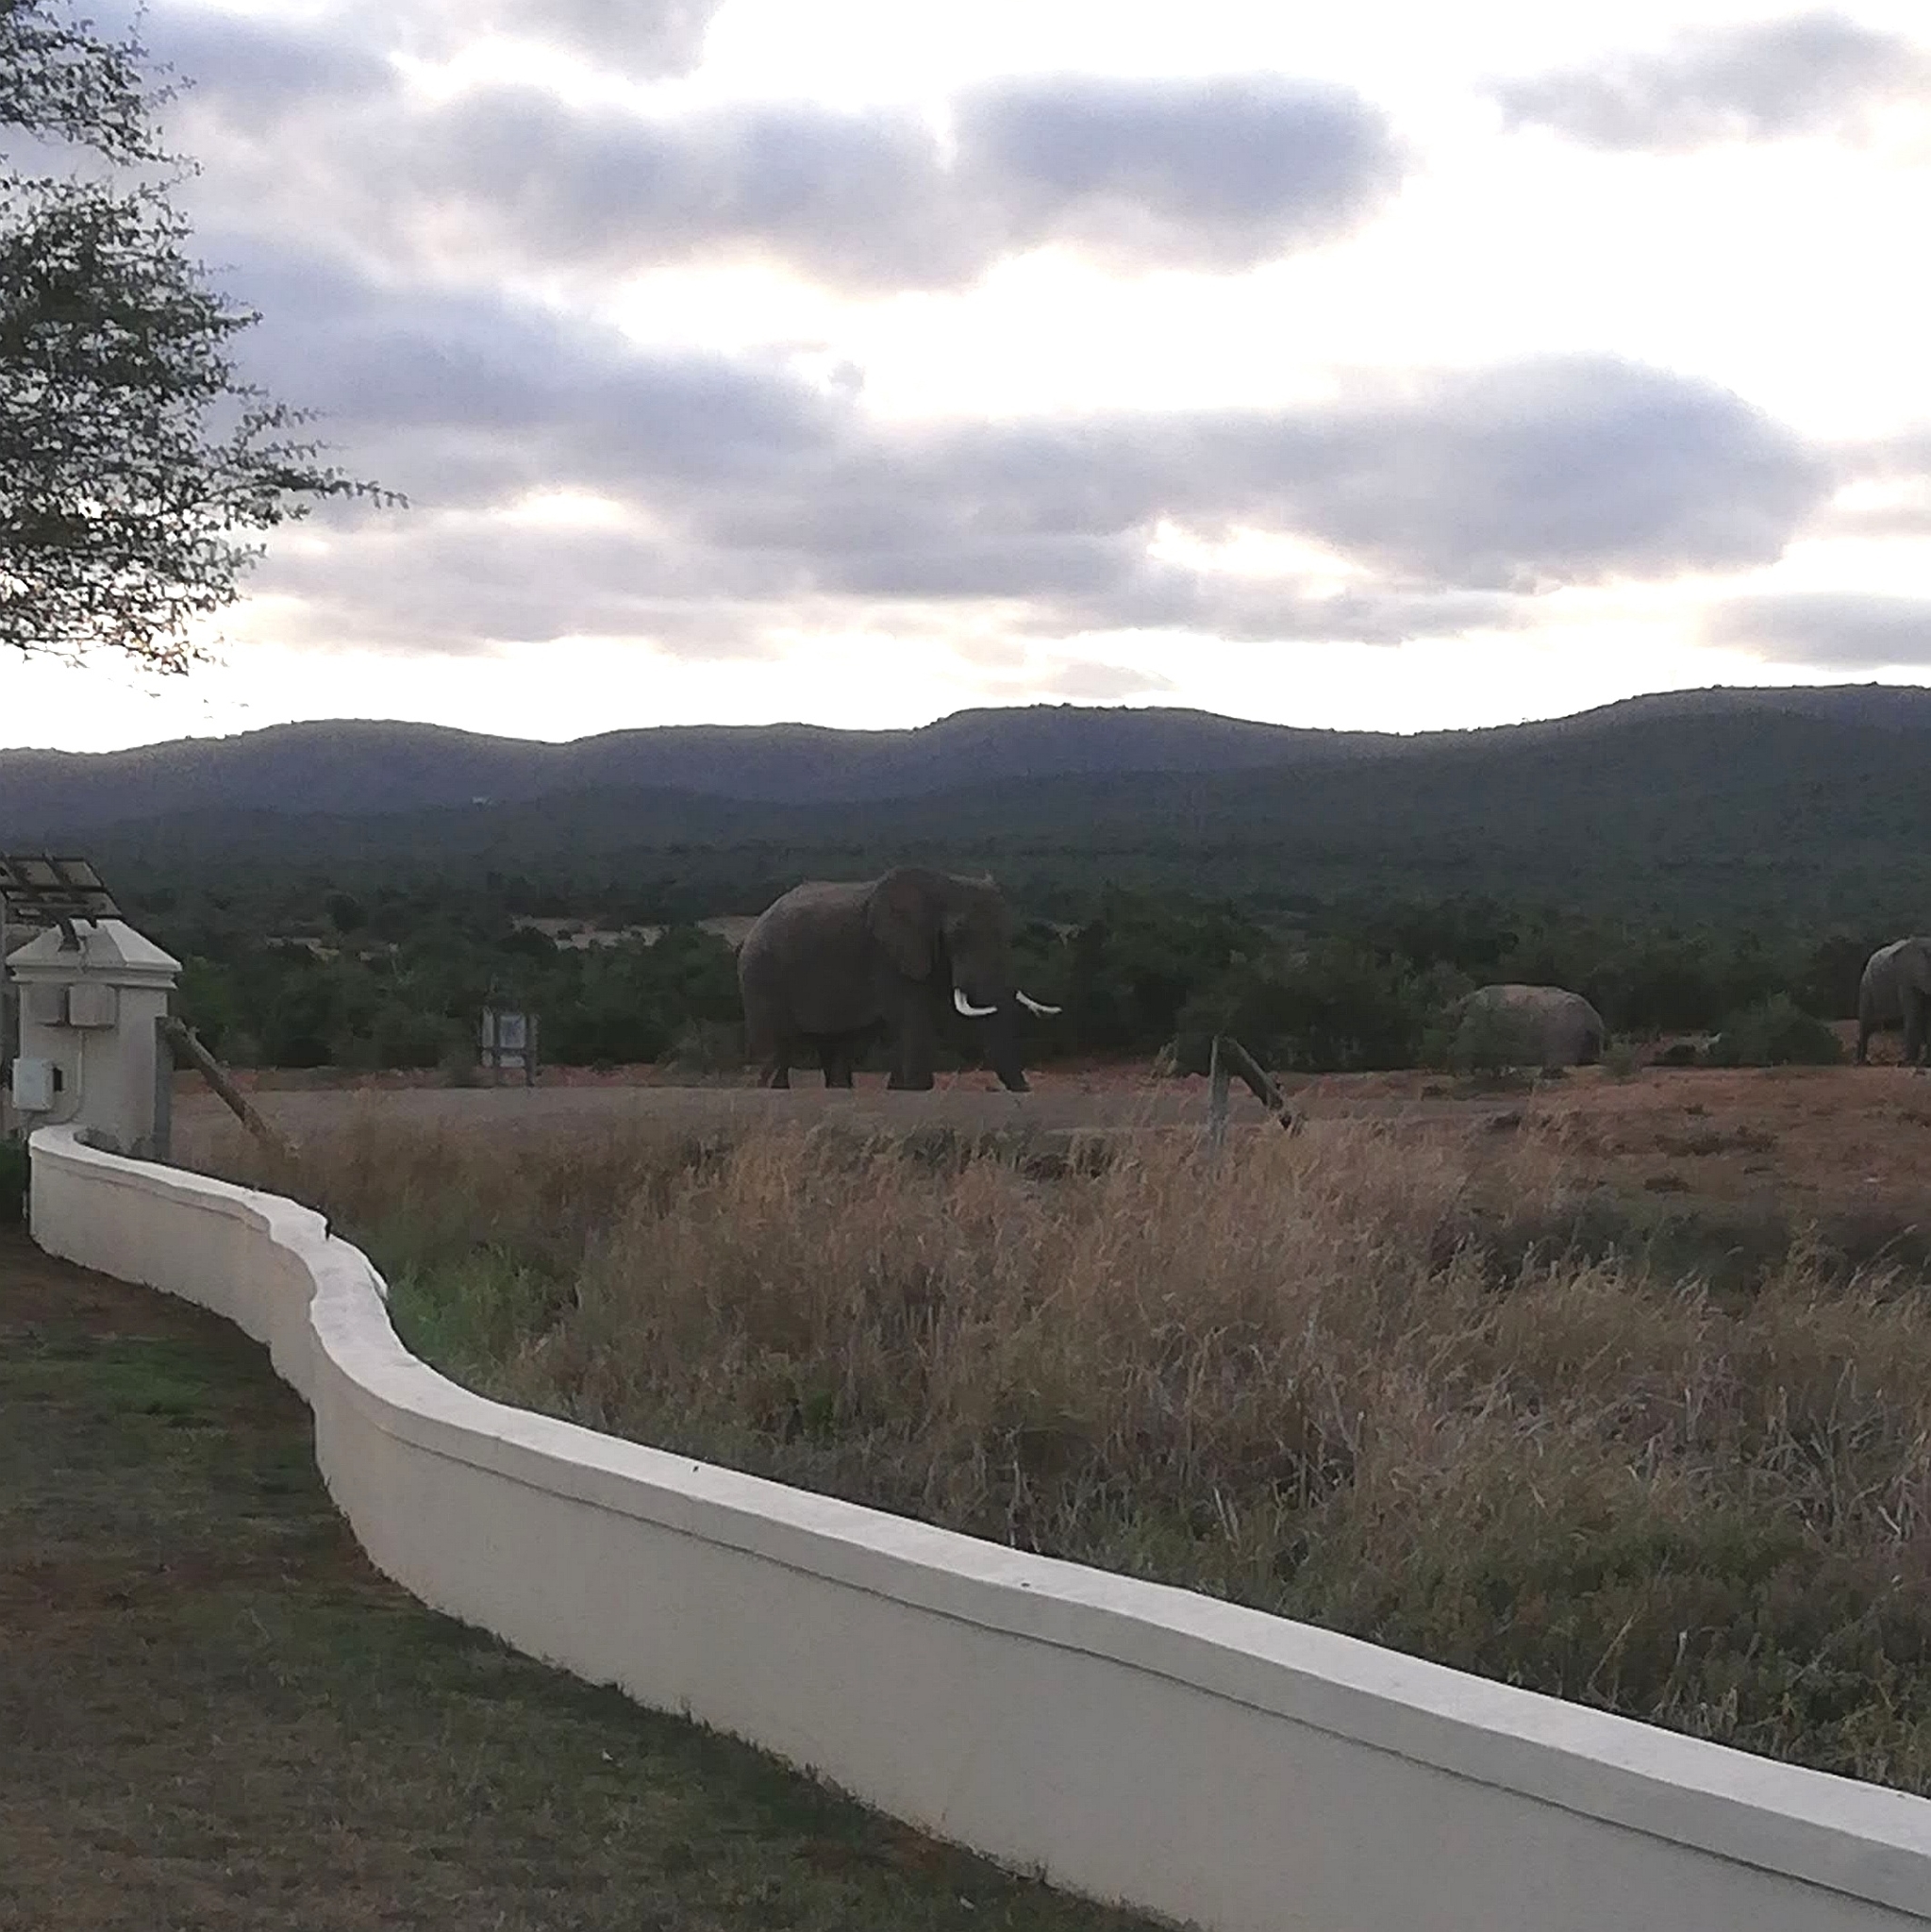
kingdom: Animalia
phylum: Chordata
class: Mammalia
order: Proboscidea
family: Elephantidae
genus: Loxodonta
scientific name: Loxodonta africana
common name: African elephant
